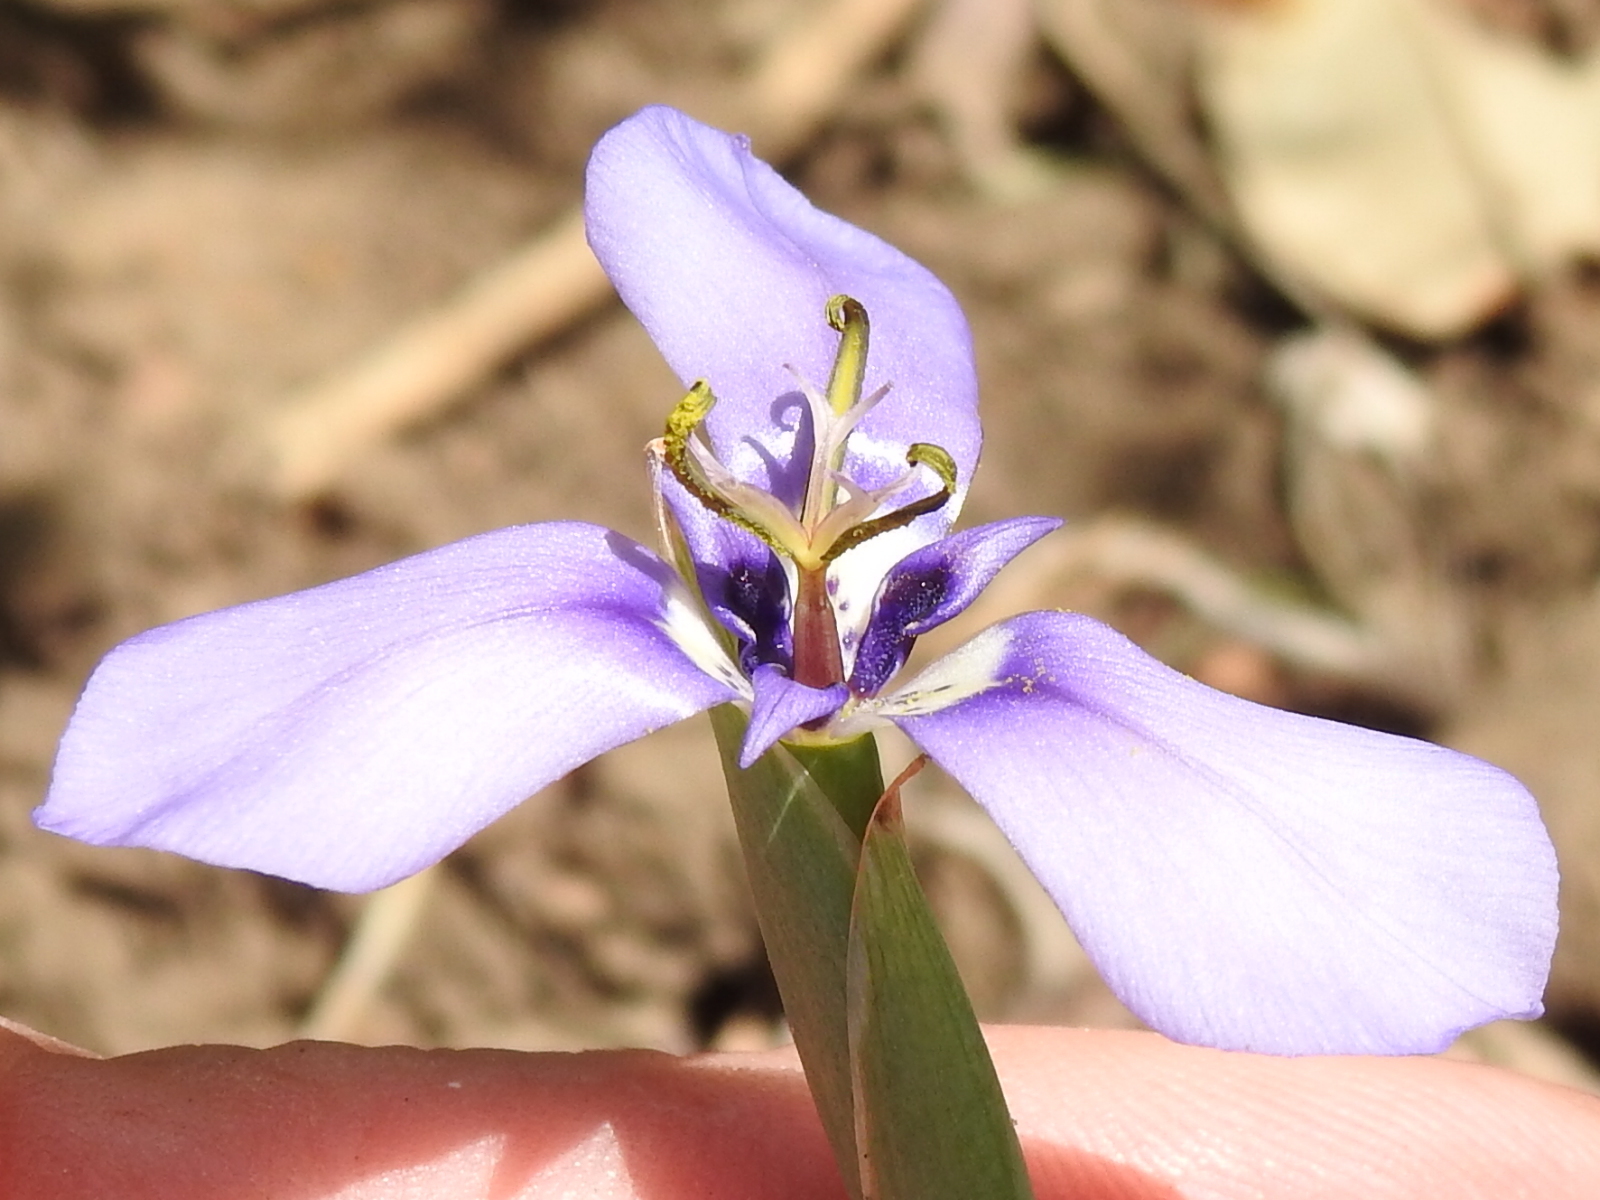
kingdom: Plantae
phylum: Tracheophyta
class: Liliopsida
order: Asparagales
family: Iridaceae
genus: Herbertia
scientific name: Herbertia lahue
